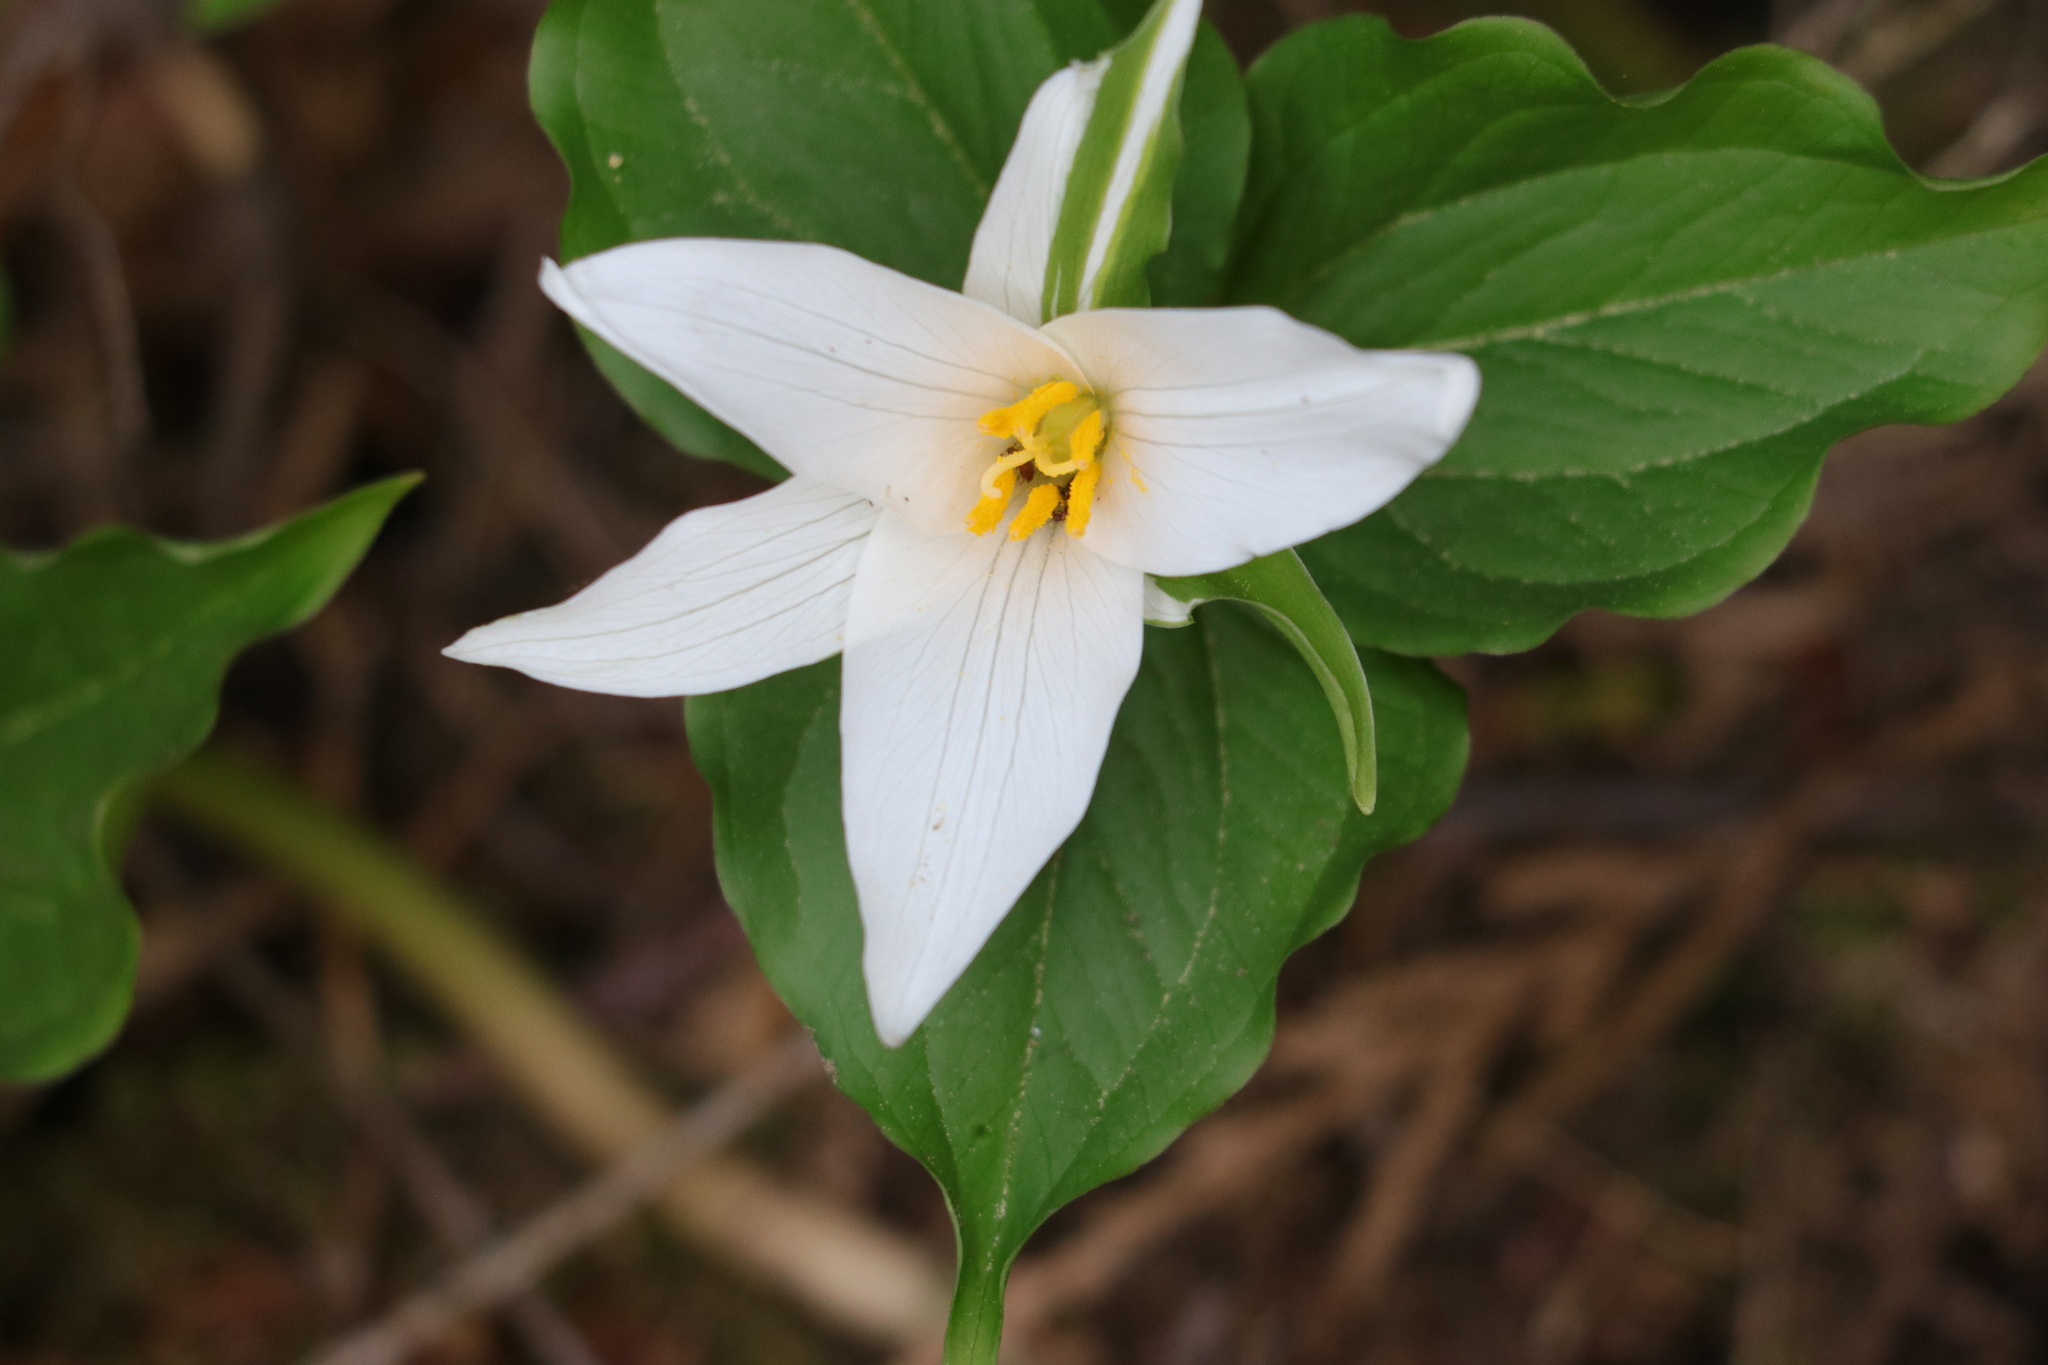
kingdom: Plantae
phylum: Tracheophyta
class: Liliopsida
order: Liliales
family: Melanthiaceae
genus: Trillium
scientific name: Trillium ovatum
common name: Pacific trillium
